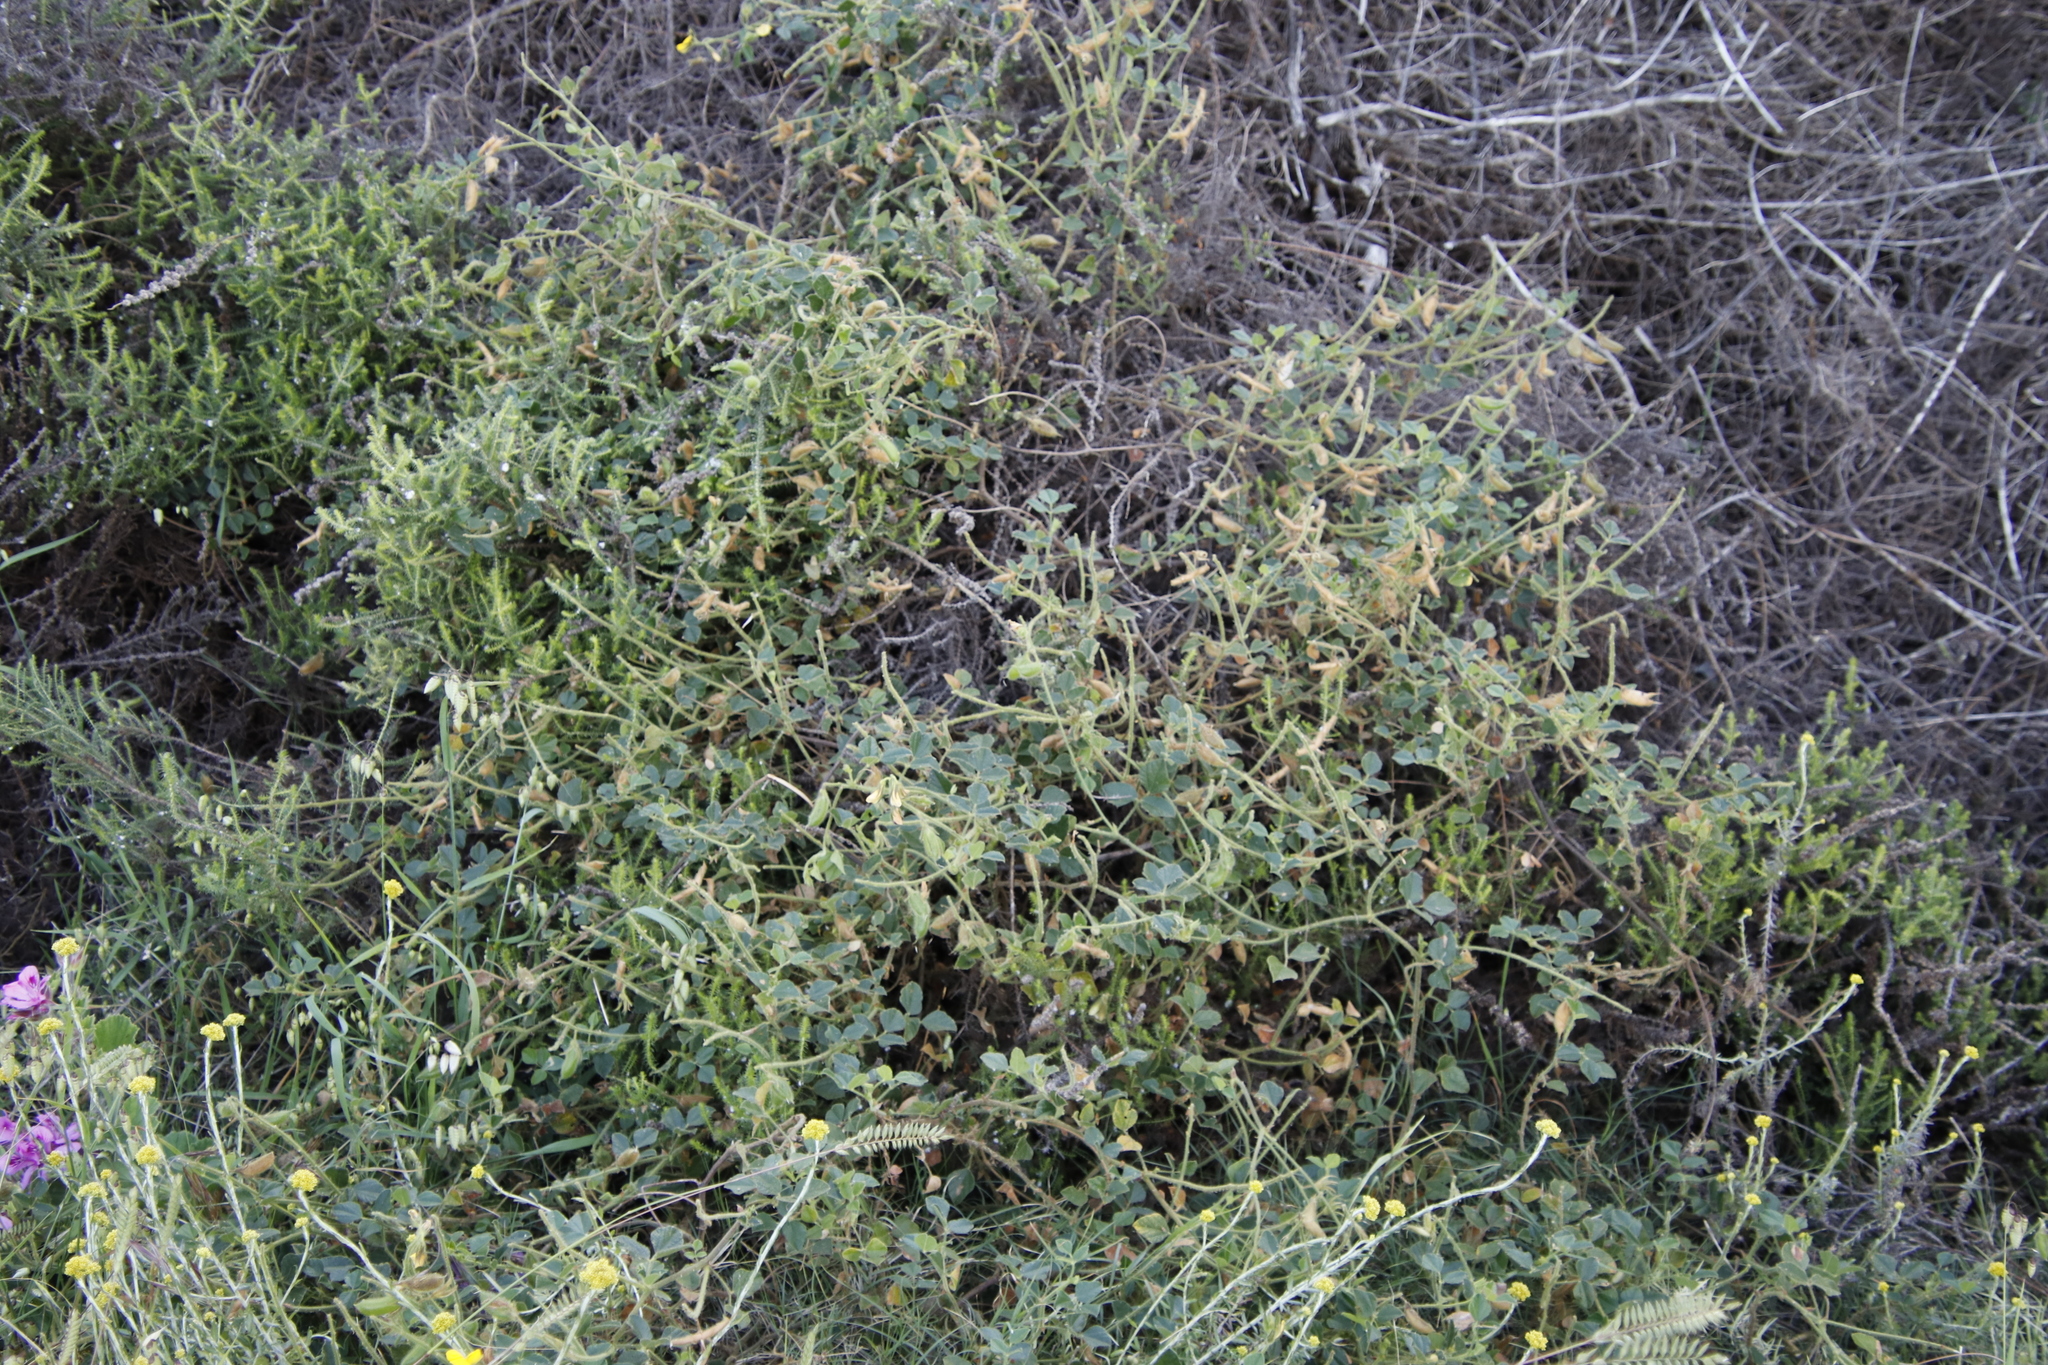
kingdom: Plantae
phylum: Tracheophyta
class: Magnoliopsida
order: Fabales
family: Fabaceae
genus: Bolusafra
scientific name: Bolusafra bituminosa
